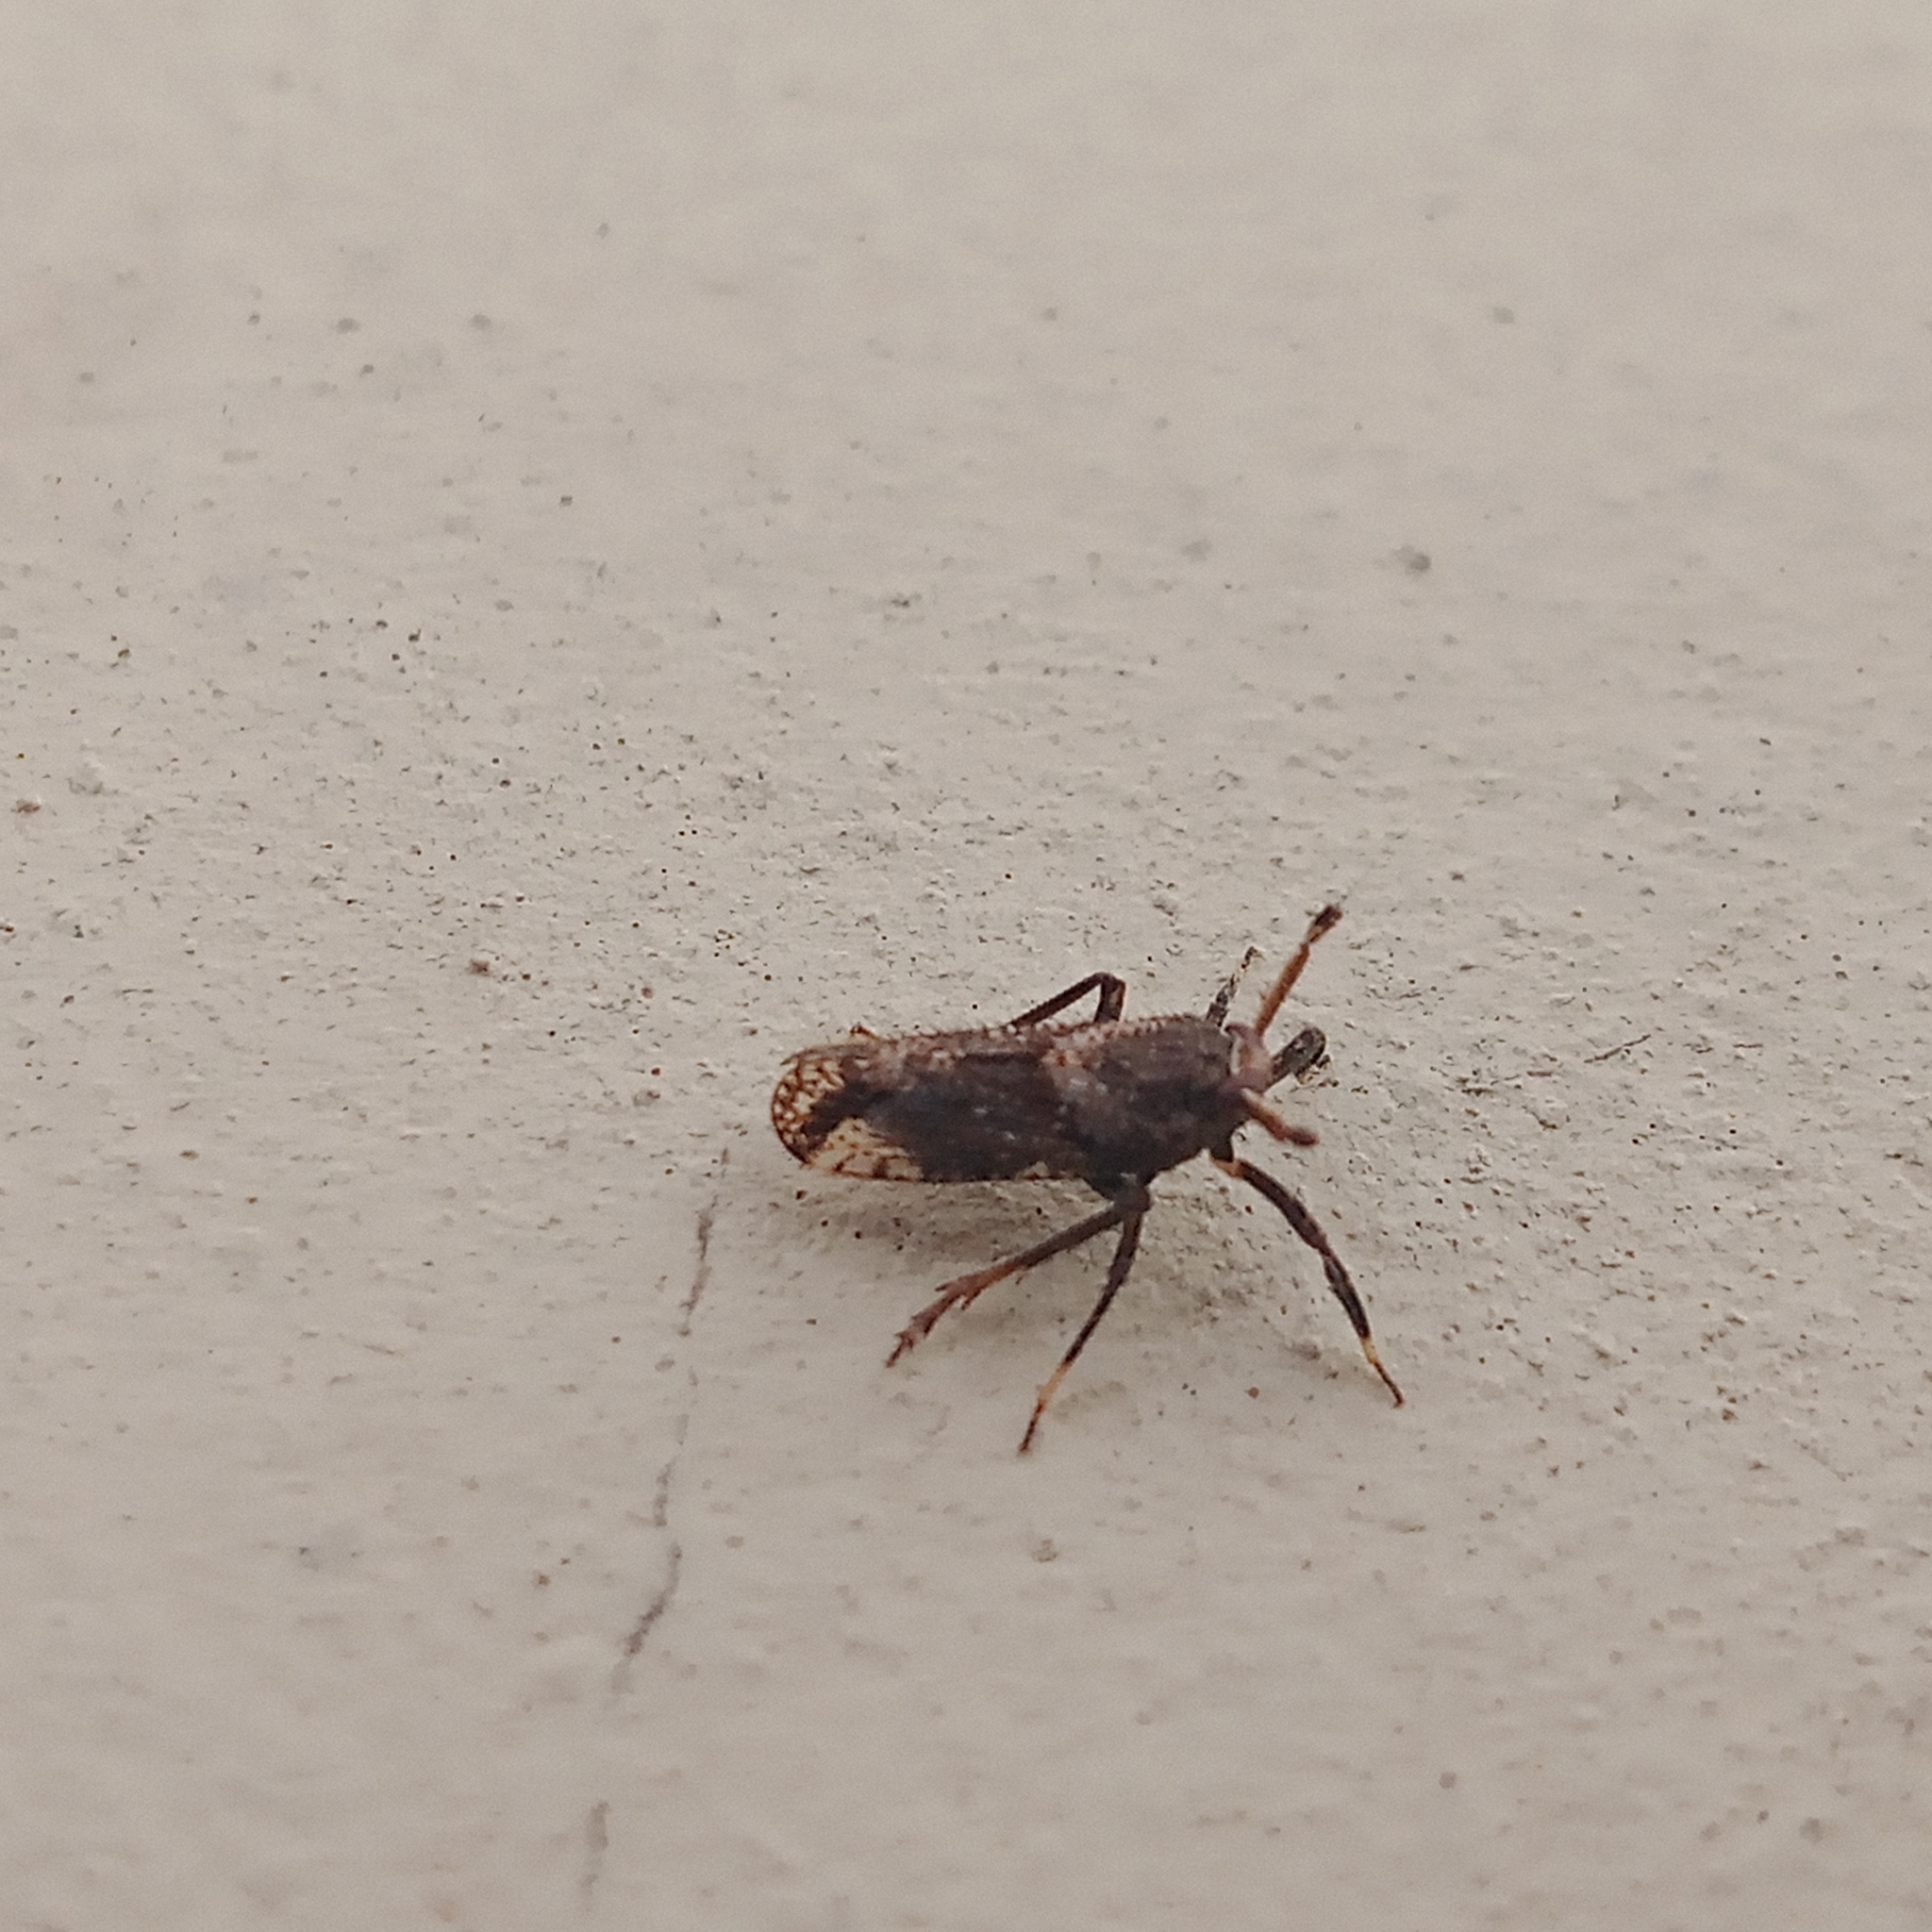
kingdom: Animalia
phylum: Arthropoda
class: Insecta
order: Hemiptera
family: Delphacidae
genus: Asiraca
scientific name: Asiraca clavicornis
